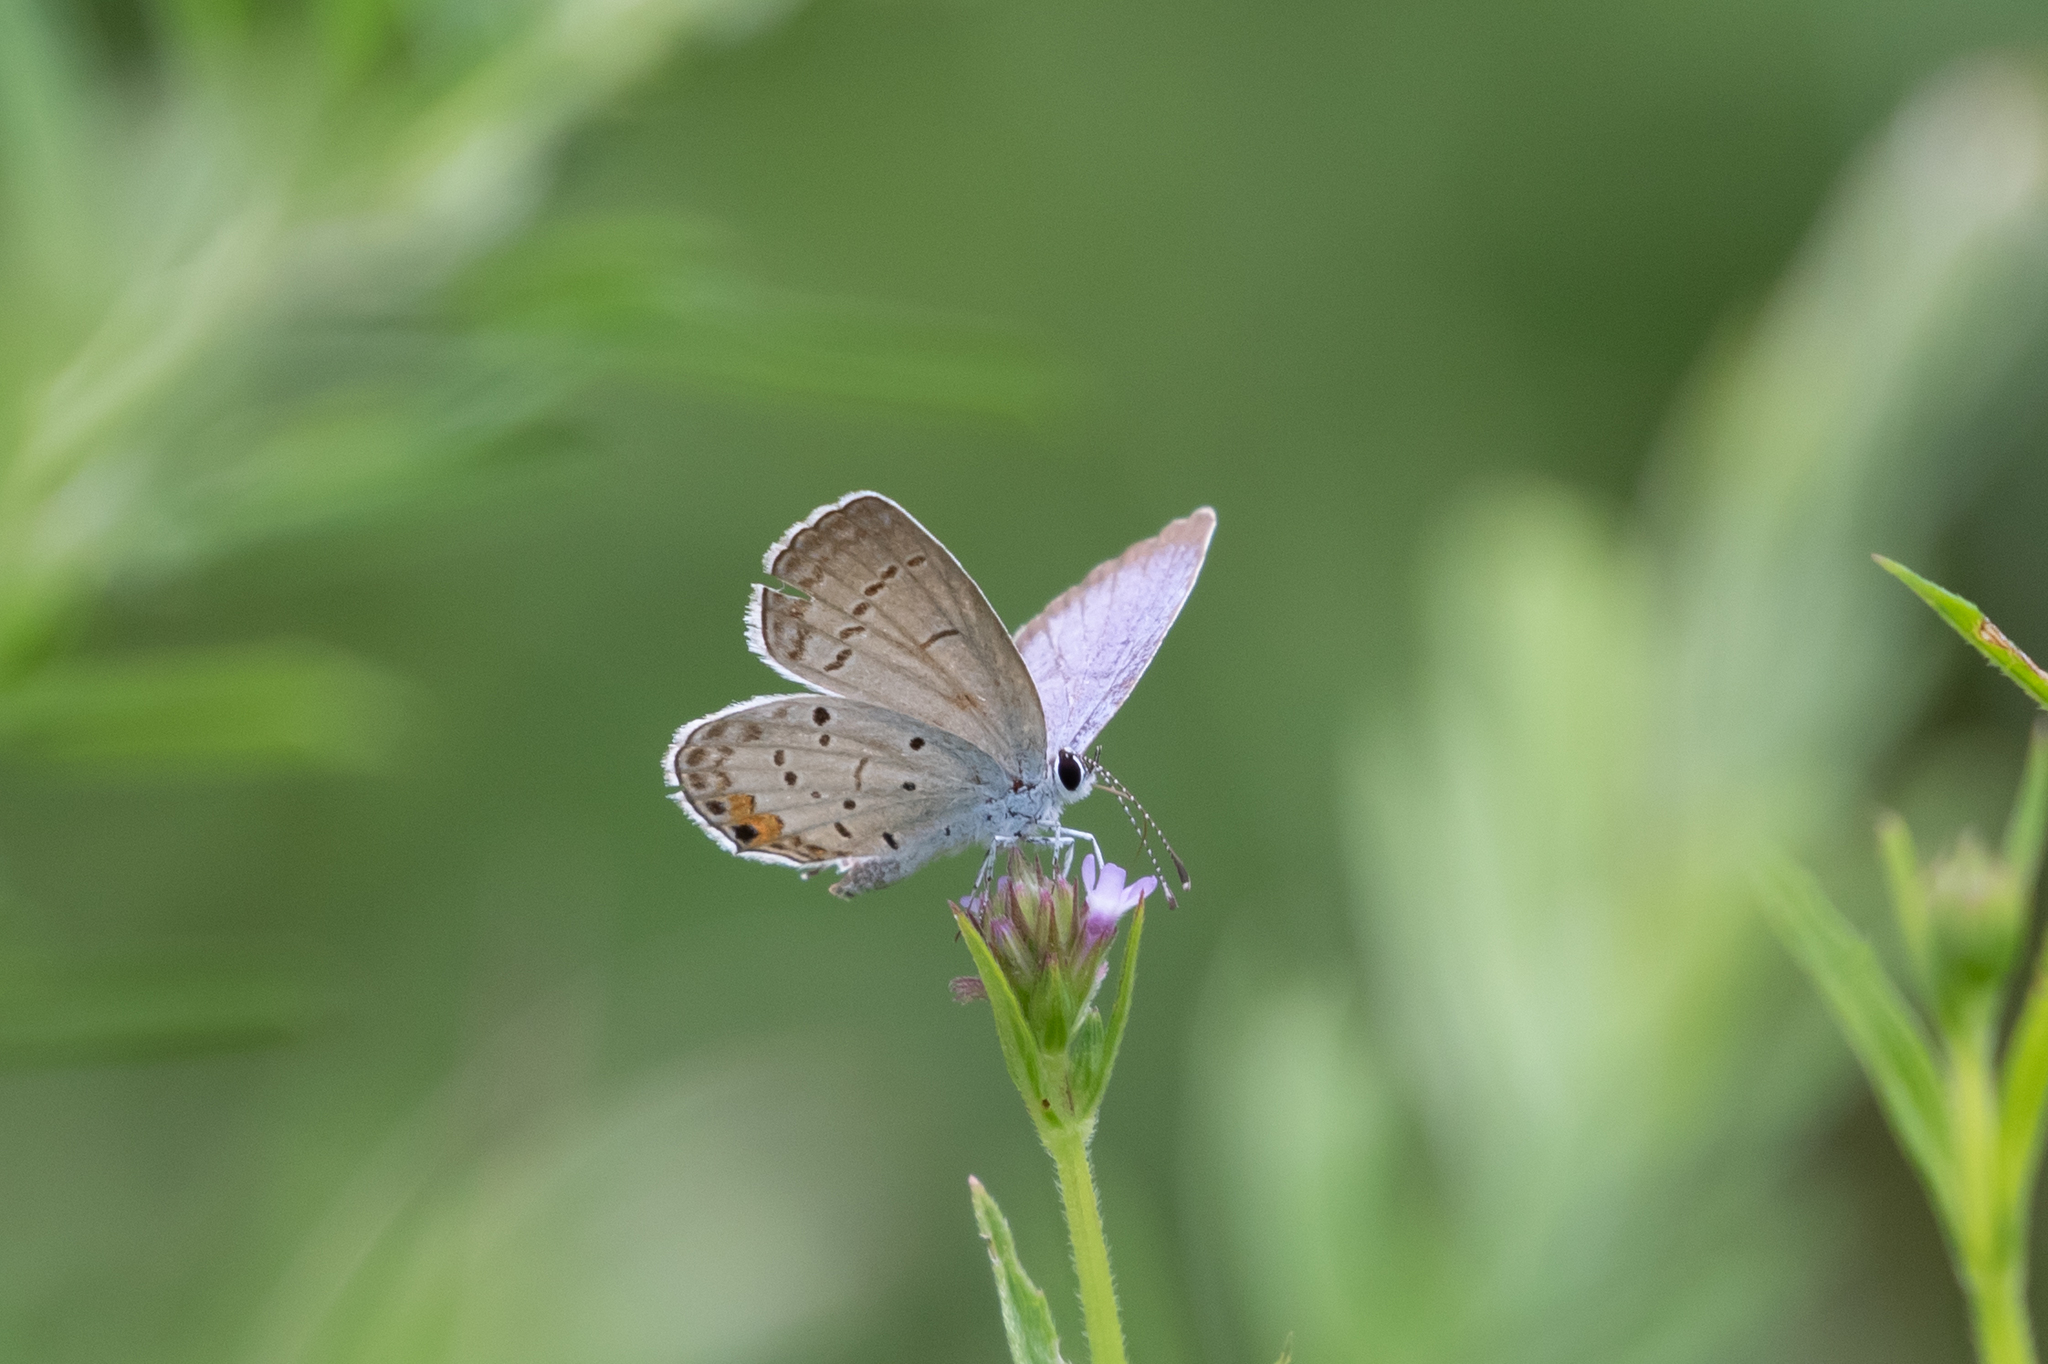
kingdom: Animalia
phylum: Arthropoda
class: Insecta
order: Lepidoptera
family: Lycaenidae
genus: Elkalyce
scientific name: Elkalyce comyntas
